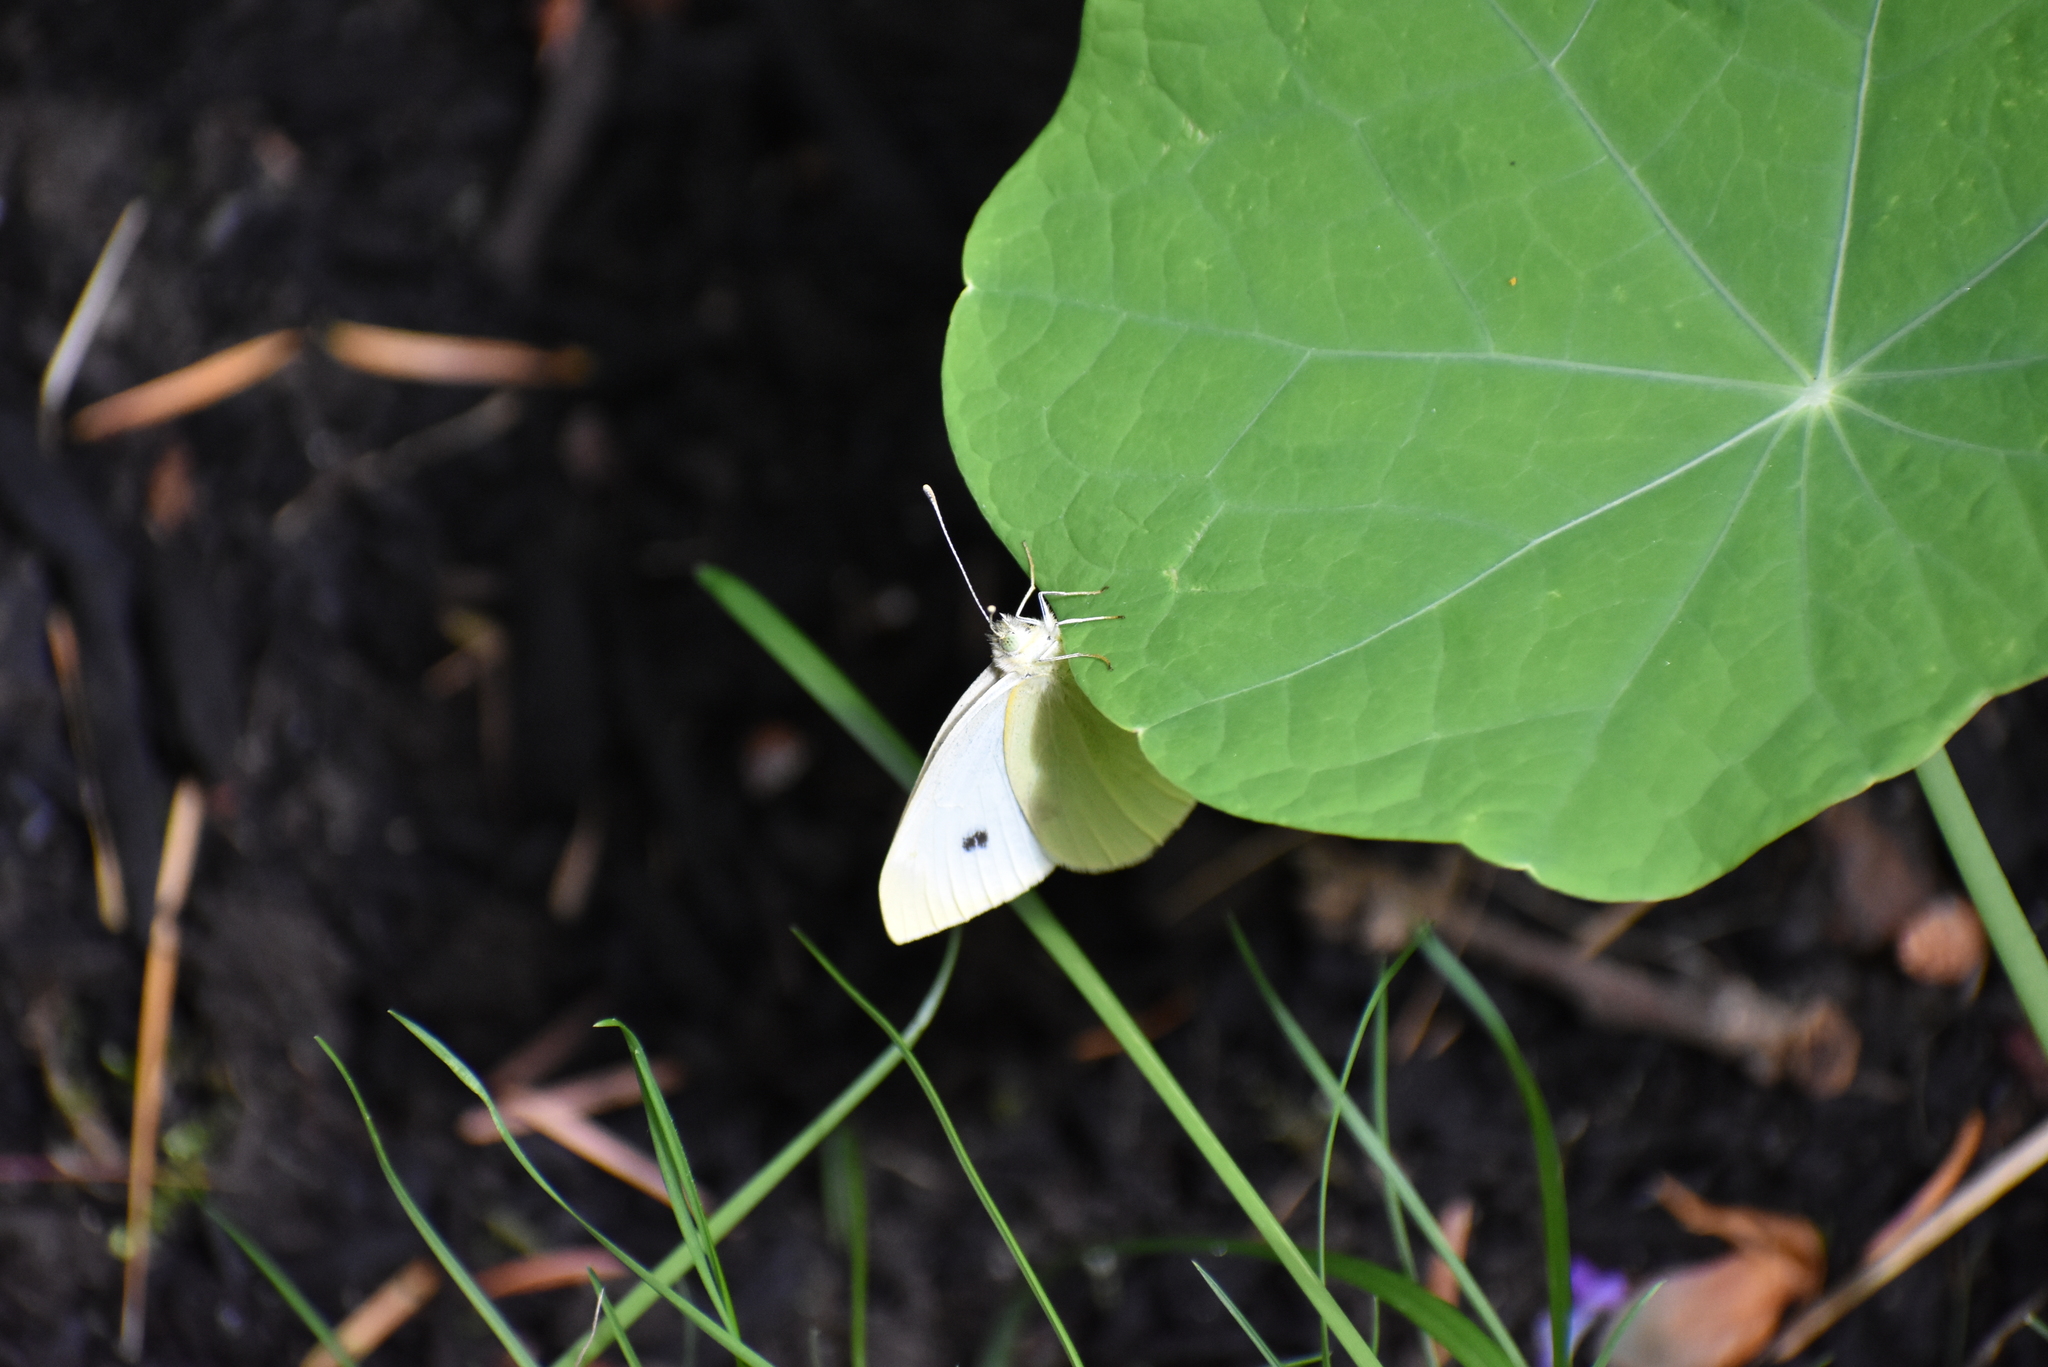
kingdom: Animalia
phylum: Arthropoda
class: Insecta
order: Lepidoptera
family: Pieridae
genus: Pieris
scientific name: Pieris rapae
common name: Small white
